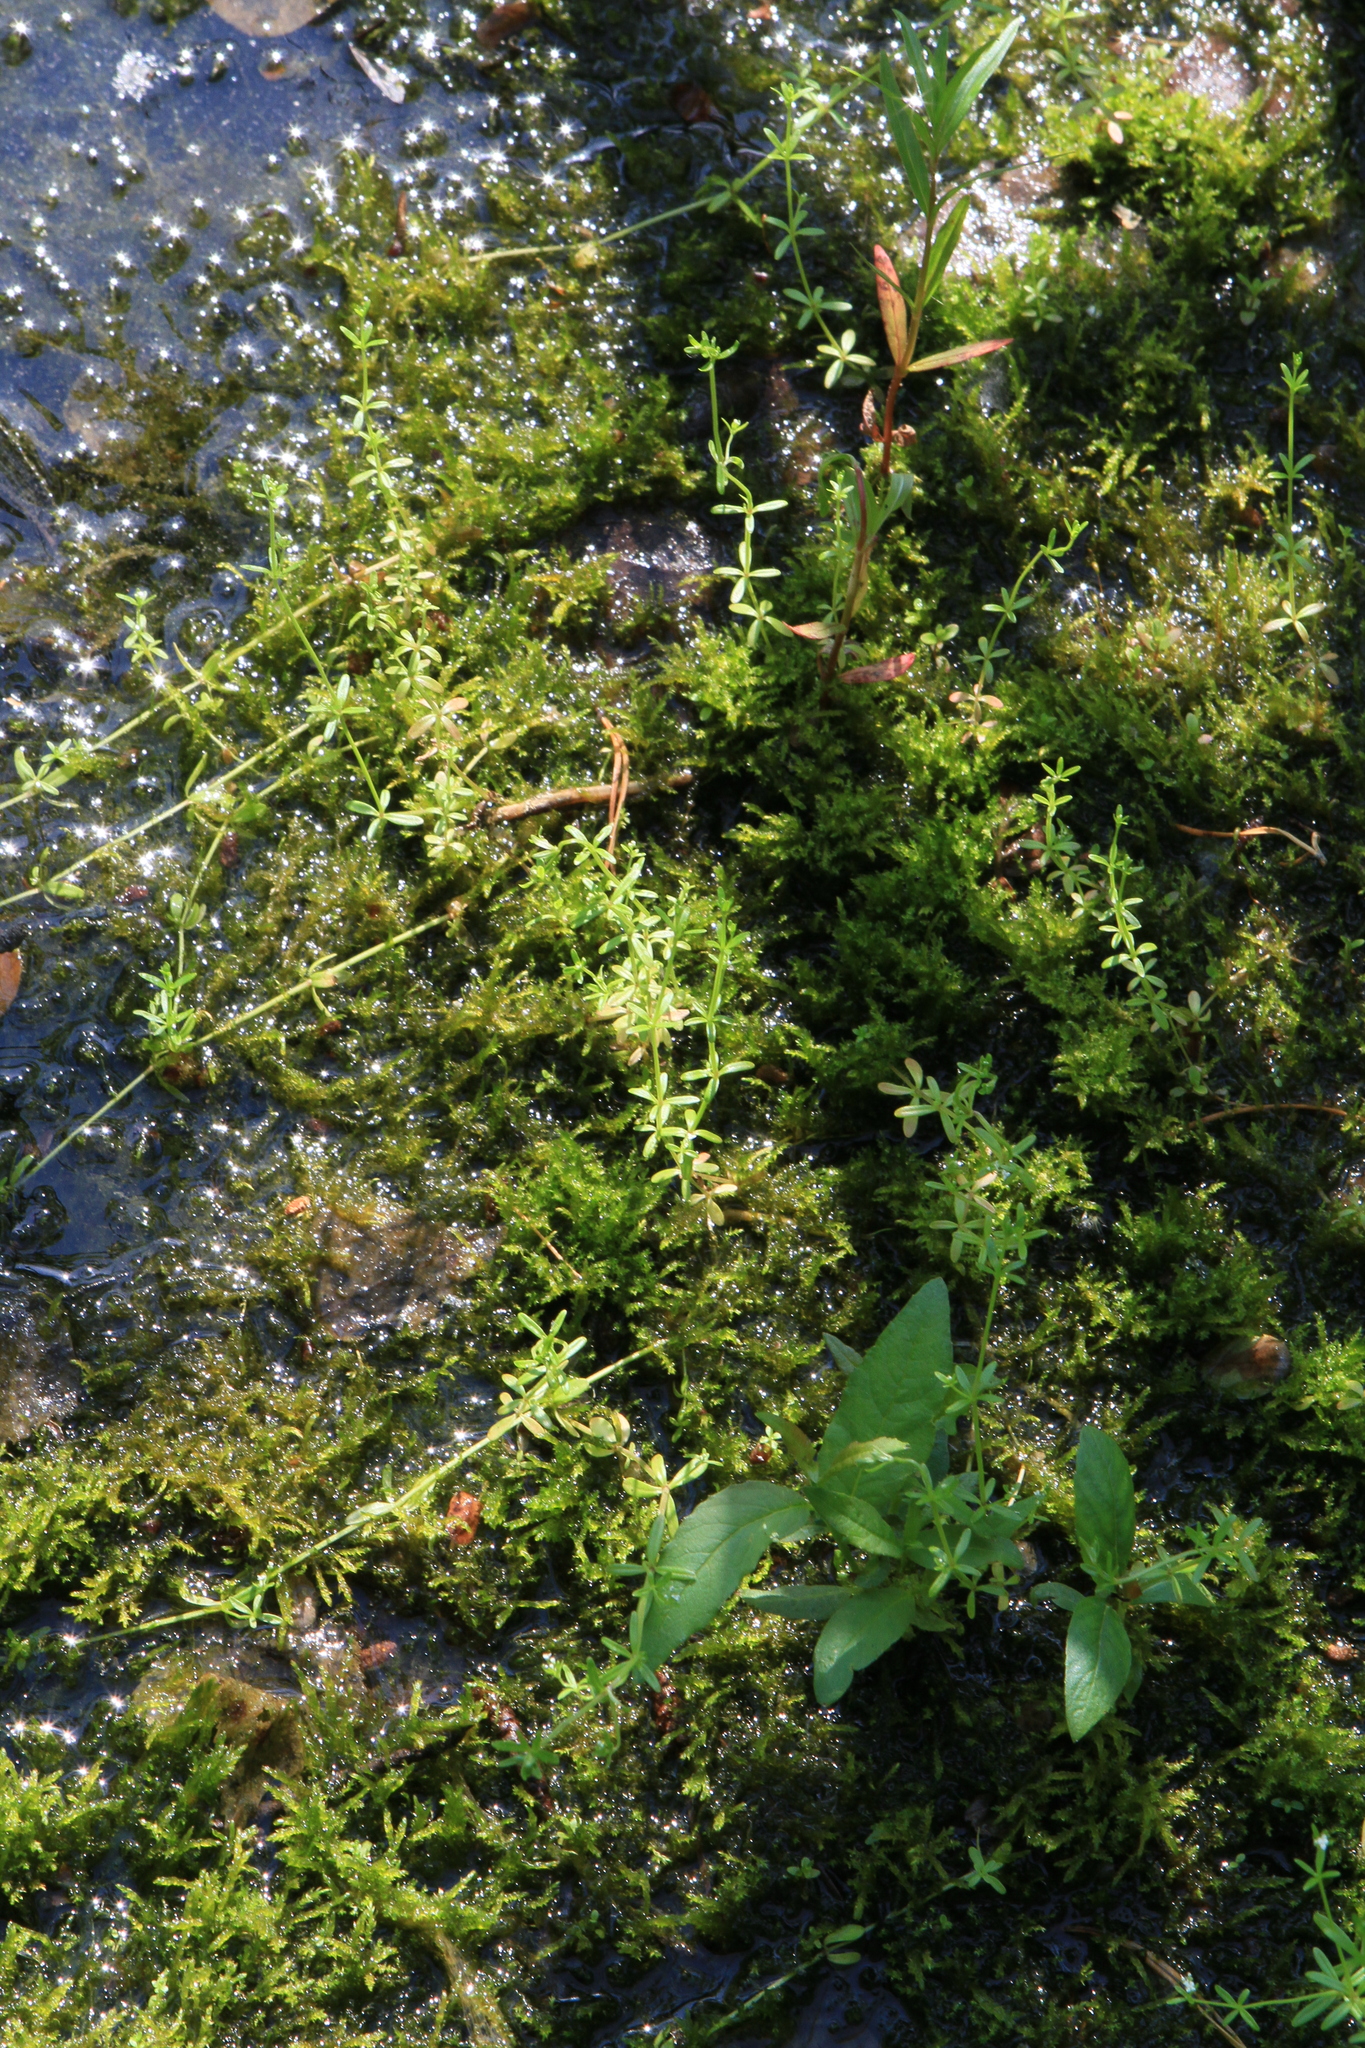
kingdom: Plantae
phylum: Tracheophyta
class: Magnoliopsida
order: Gentianales
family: Rubiaceae
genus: Galium
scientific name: Galium palustre
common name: Common marsh-bedstraw
